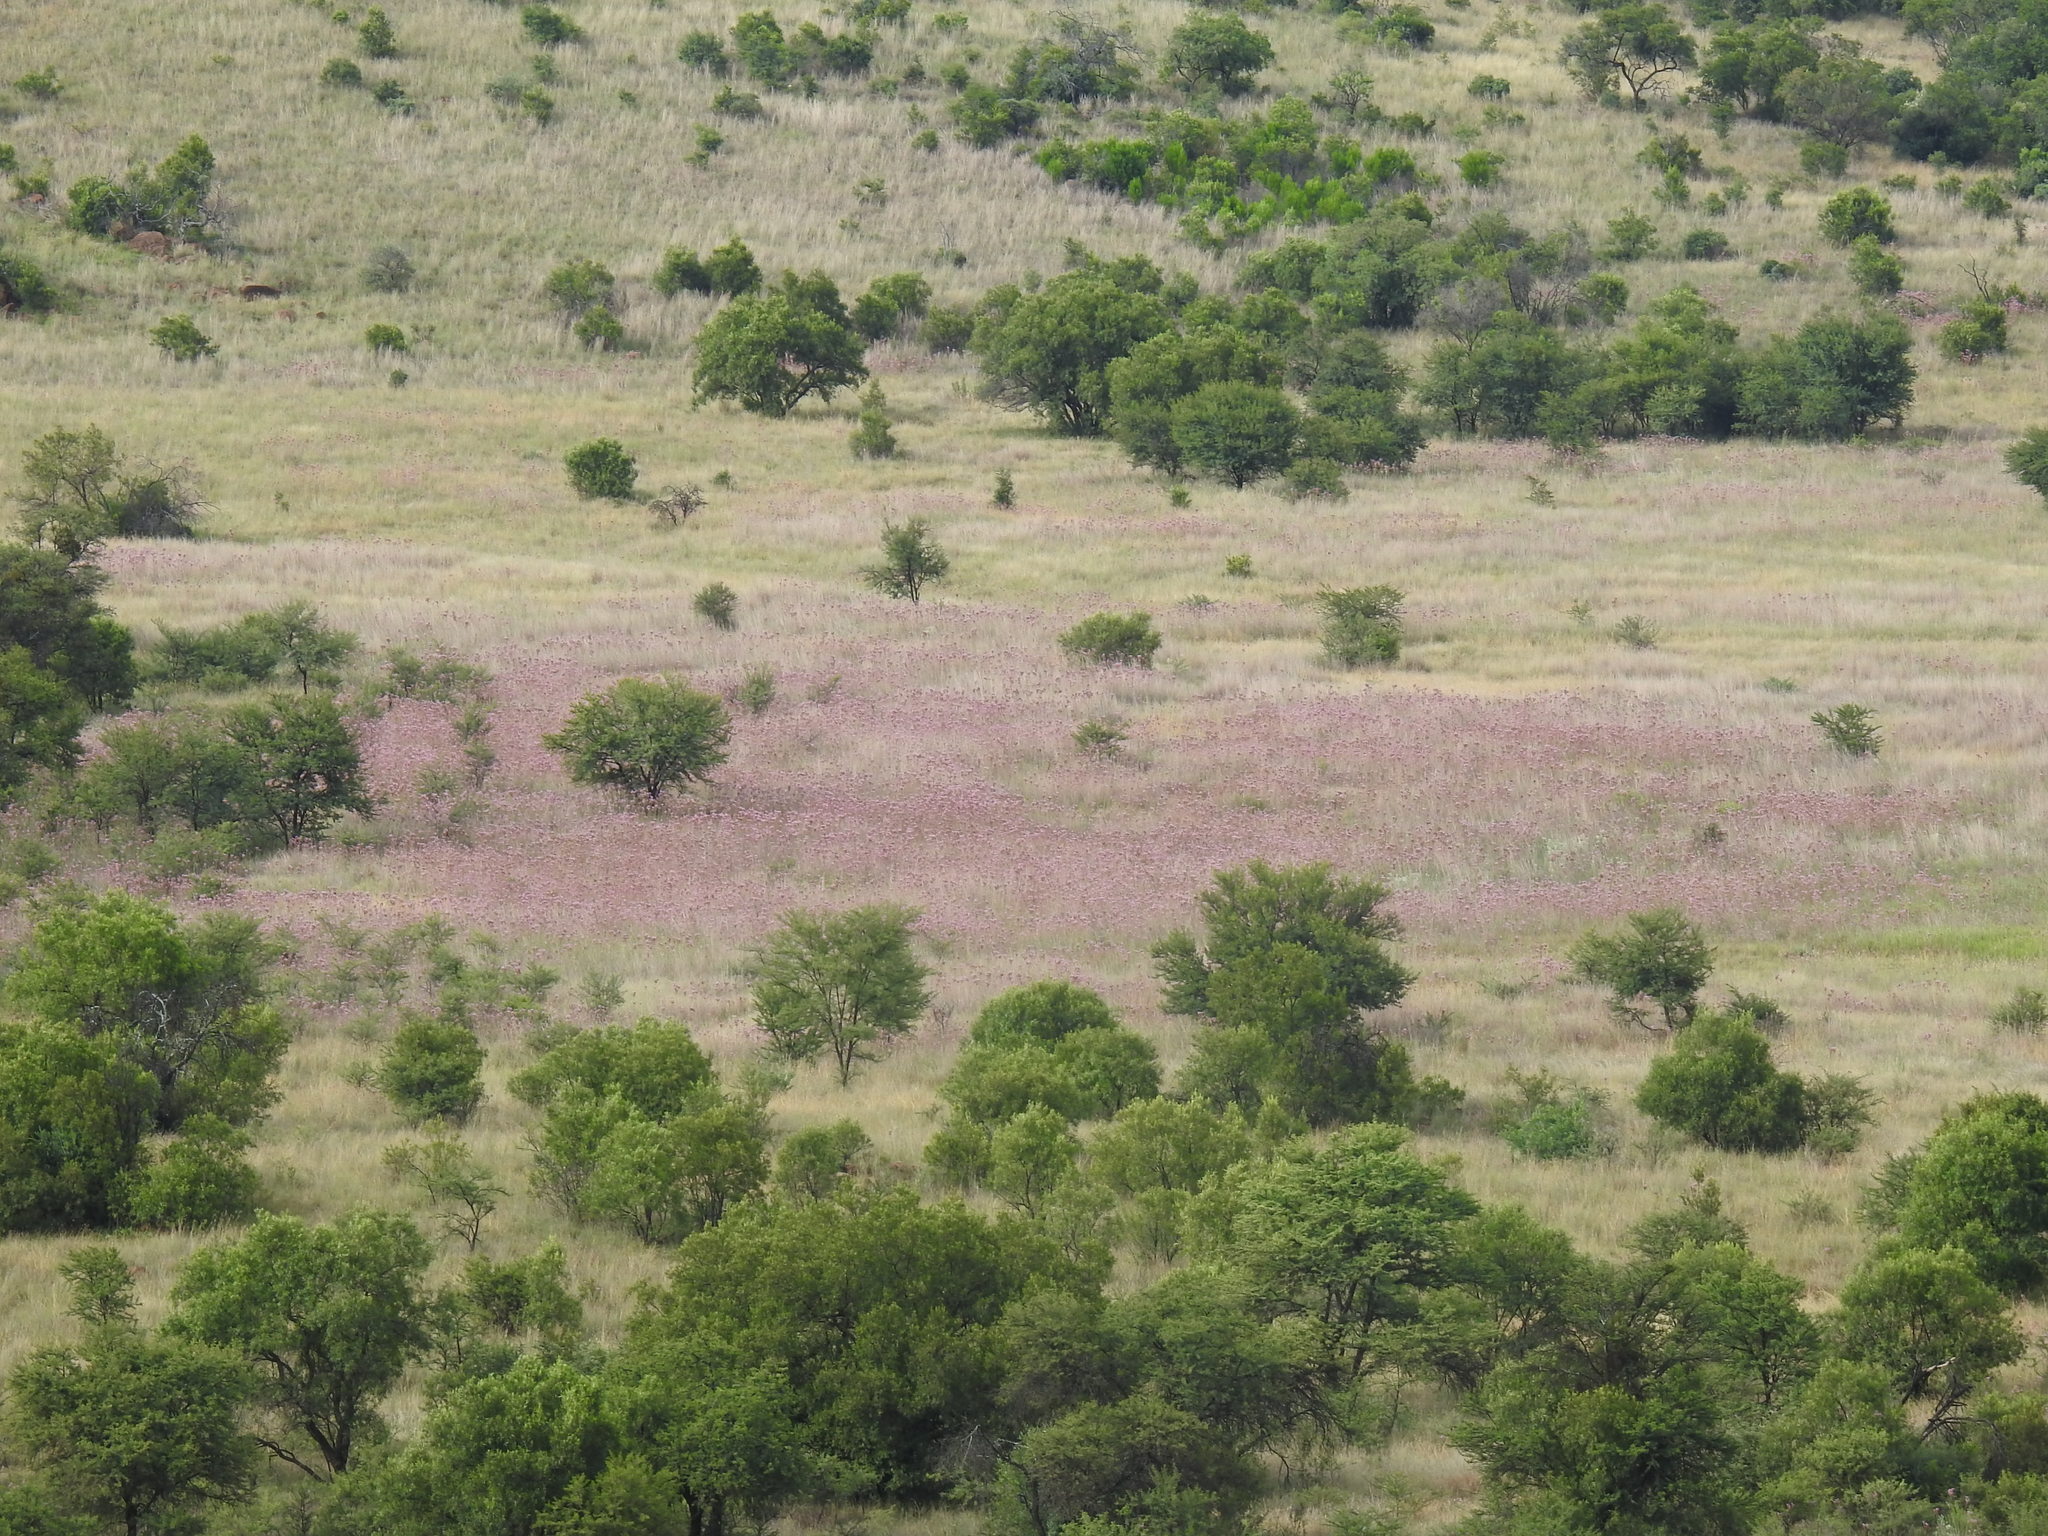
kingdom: Plantae
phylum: Tracheophyta
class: Magnoliopsida
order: Asterales
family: Asteraceae
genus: Campuloclinium
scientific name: Campuloclinium macrocephalum
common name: Pompomweed
